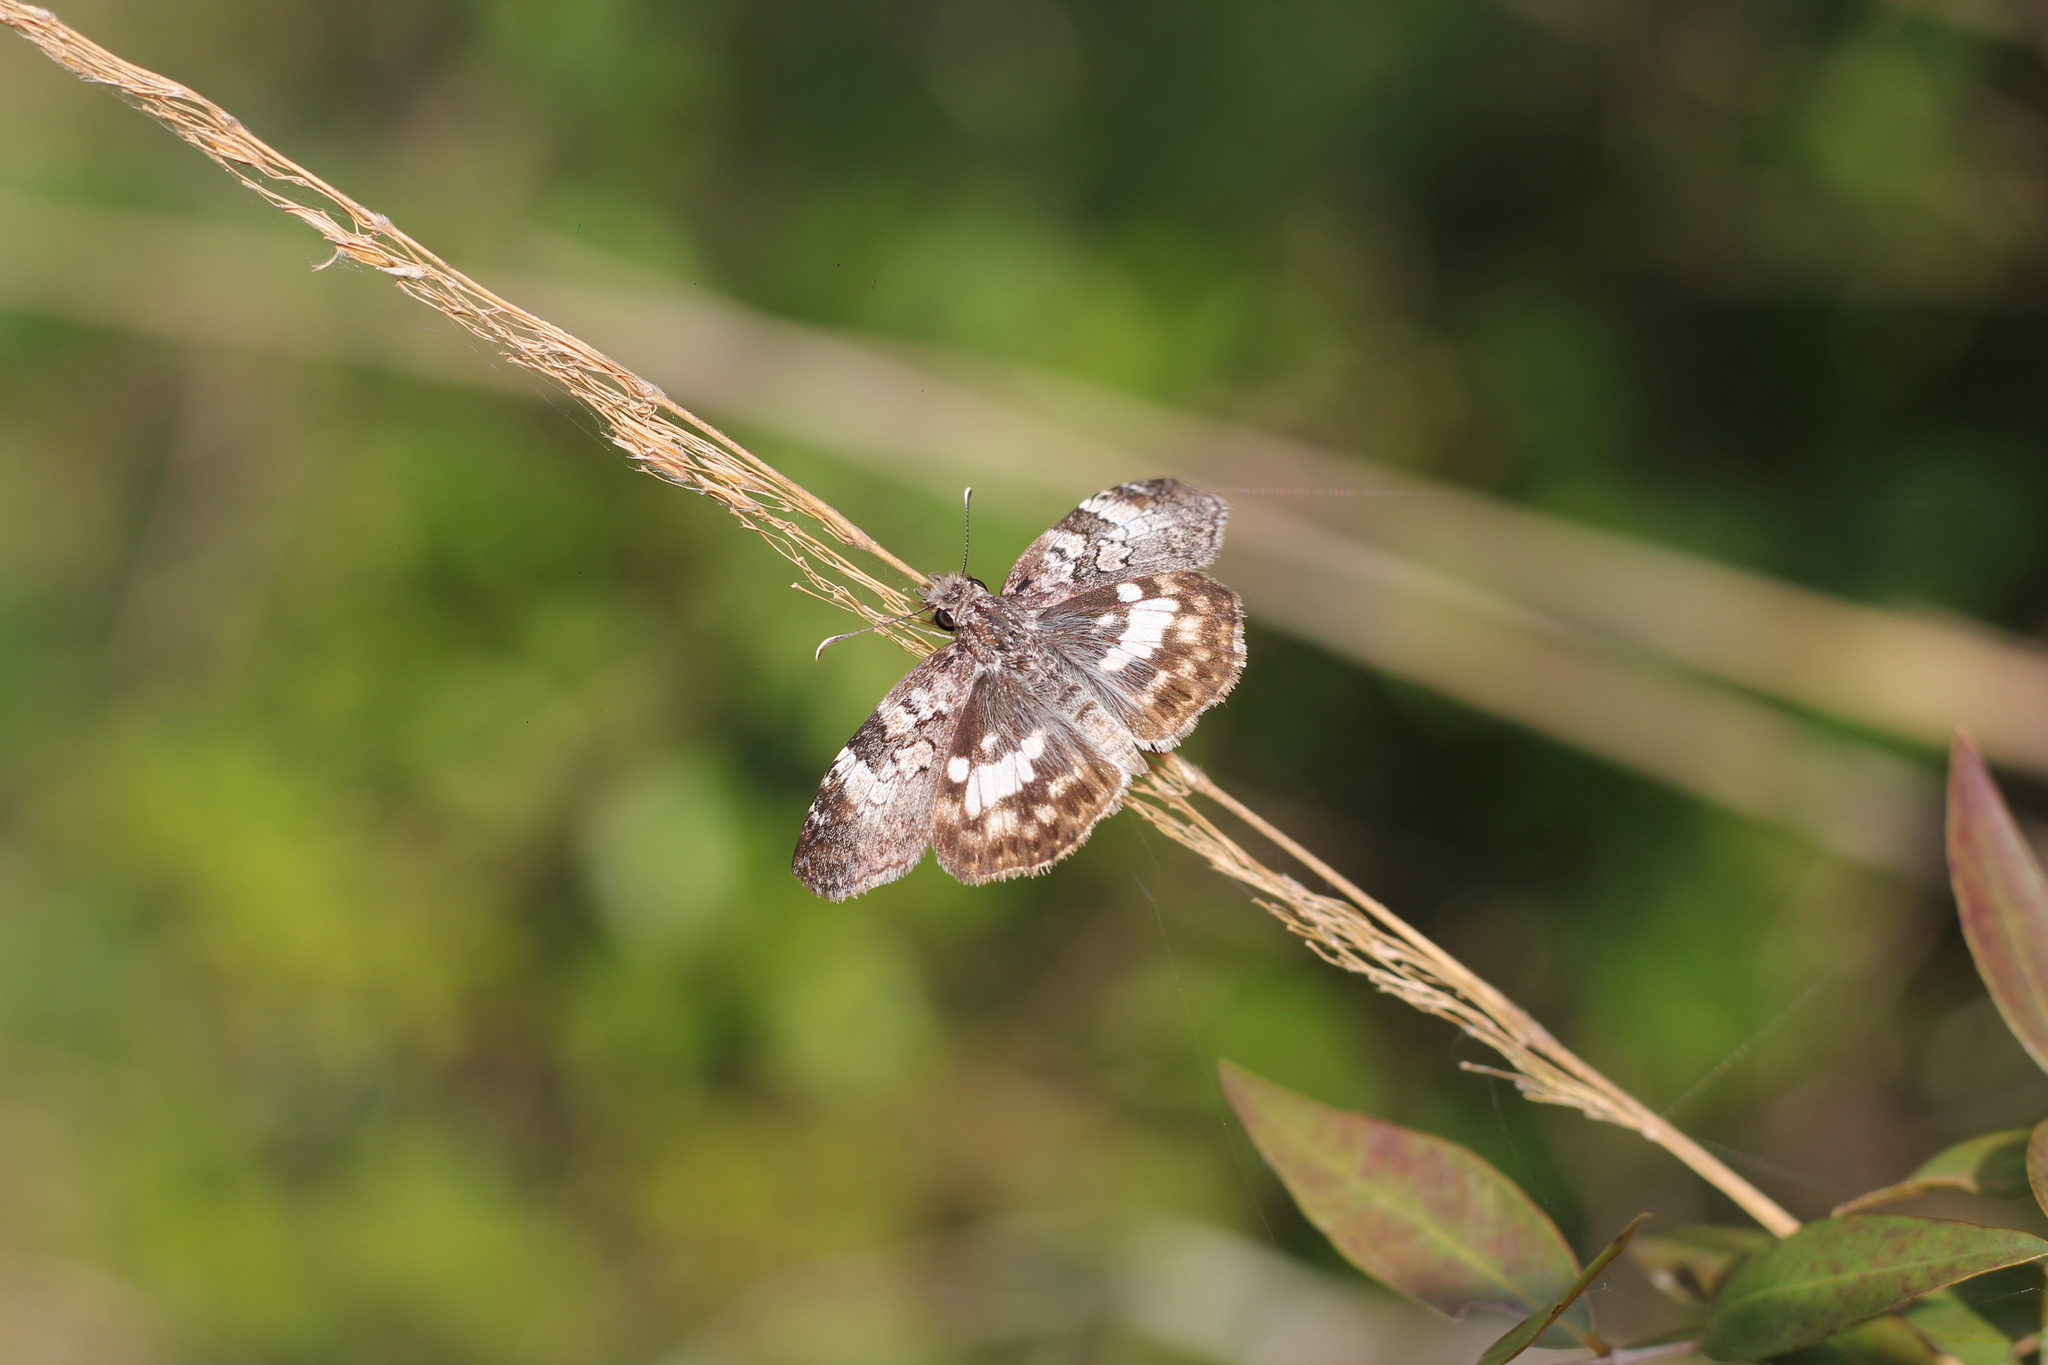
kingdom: Animalia
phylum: Arthropoda
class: Insecta
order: Lepidoptera
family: Hesperiidae
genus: Chiomara
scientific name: Chiomara asychis
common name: White-patterned skipper
